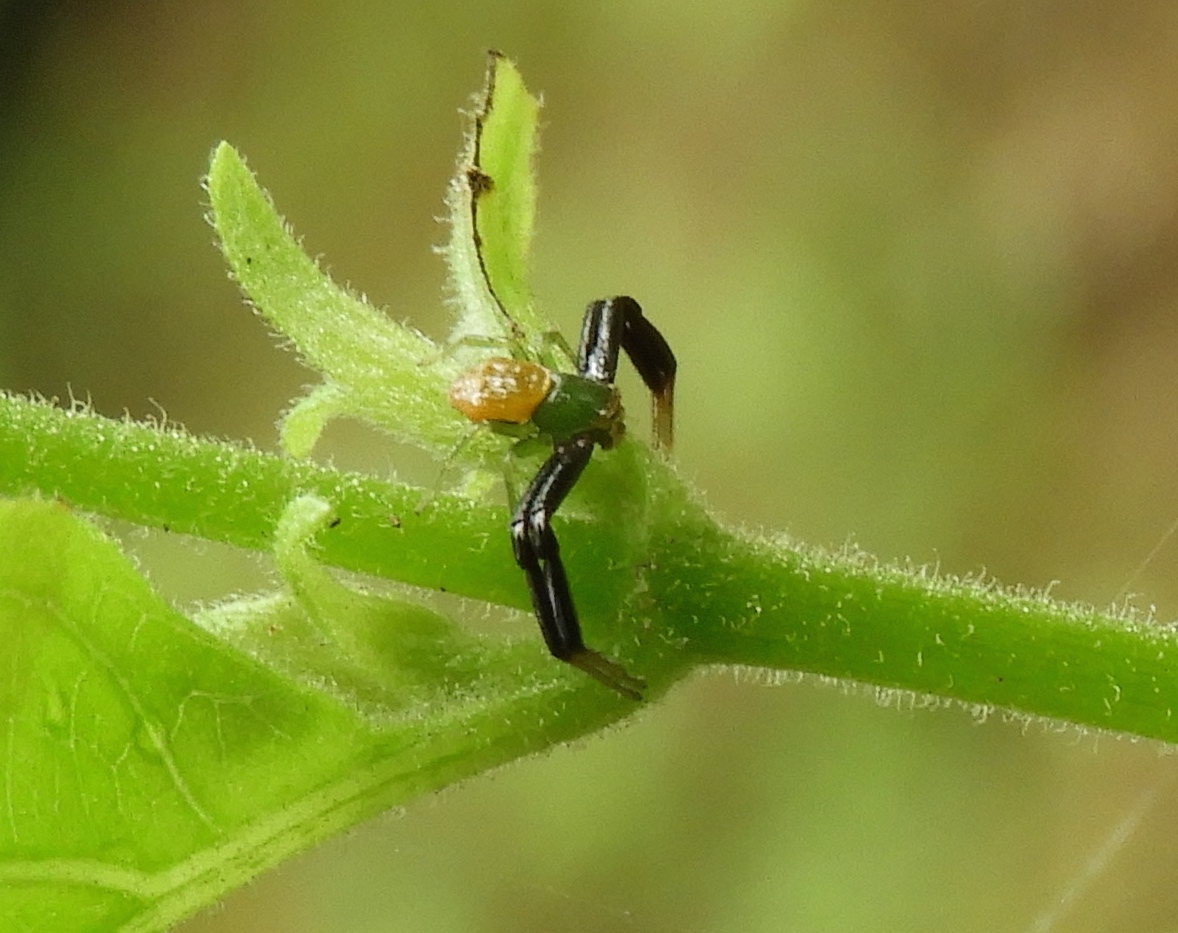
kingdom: Animalia
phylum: Arthropoda
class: Arachnida
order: Araneae
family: Thomisidae
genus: Misumenoides
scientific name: Misumenoides
